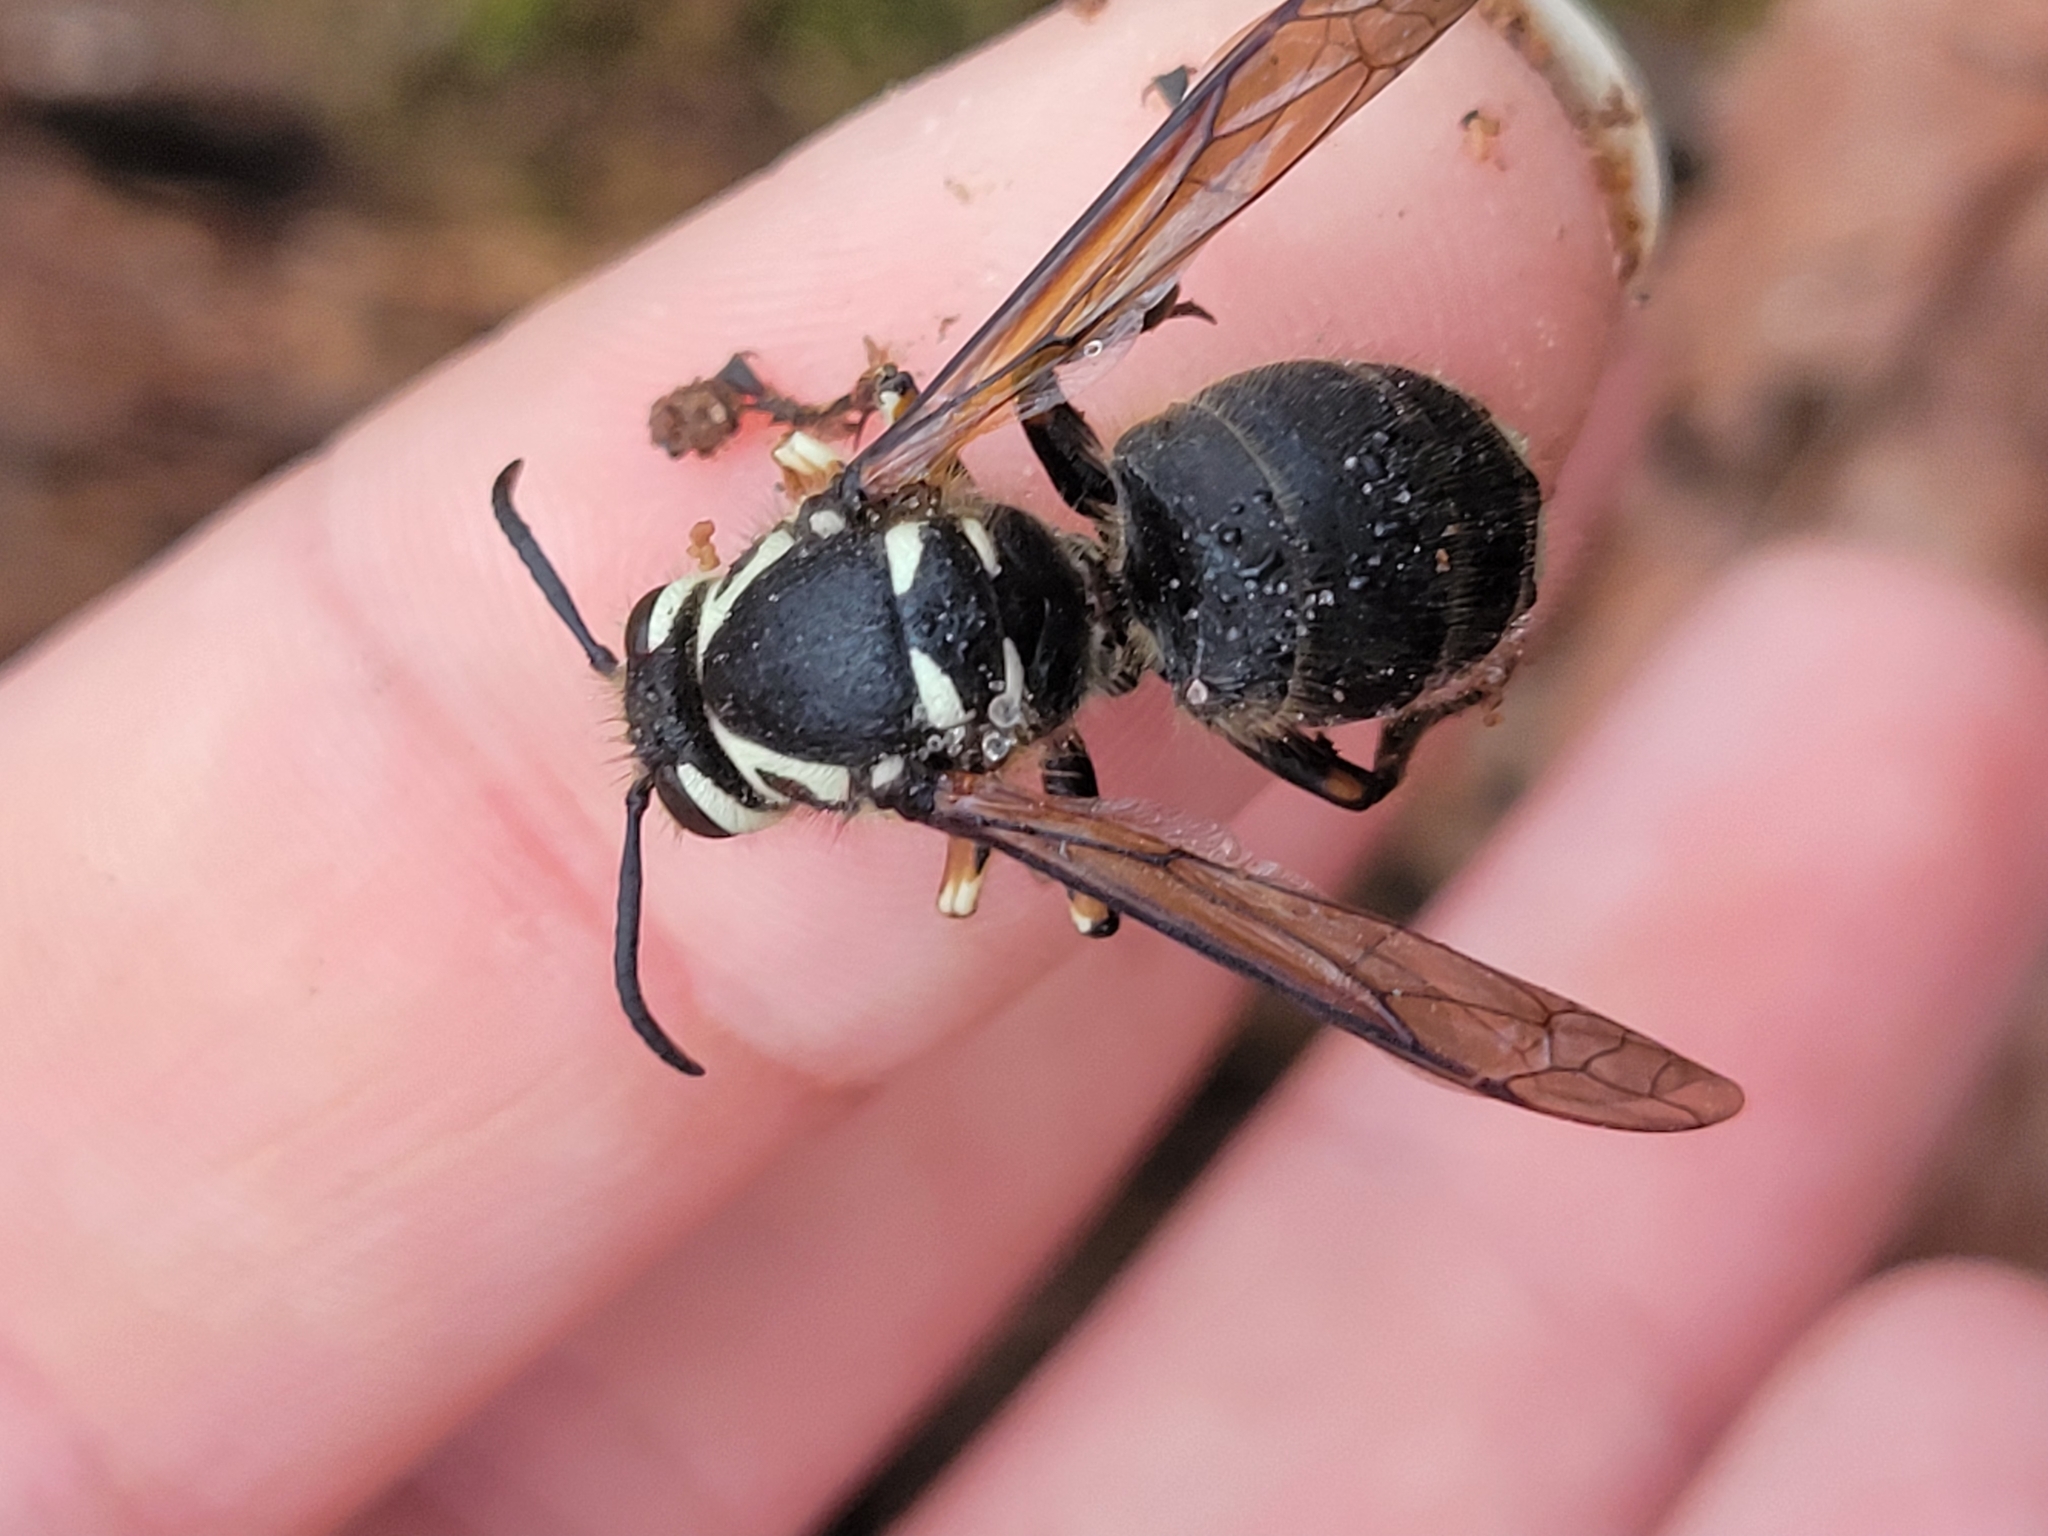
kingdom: Animalia
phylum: Arthropoda
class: Insecta
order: Hymenoptera
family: Vespidae
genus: Dolichovespula
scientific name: Dolichovespula maculata
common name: Bald-faced hornet
